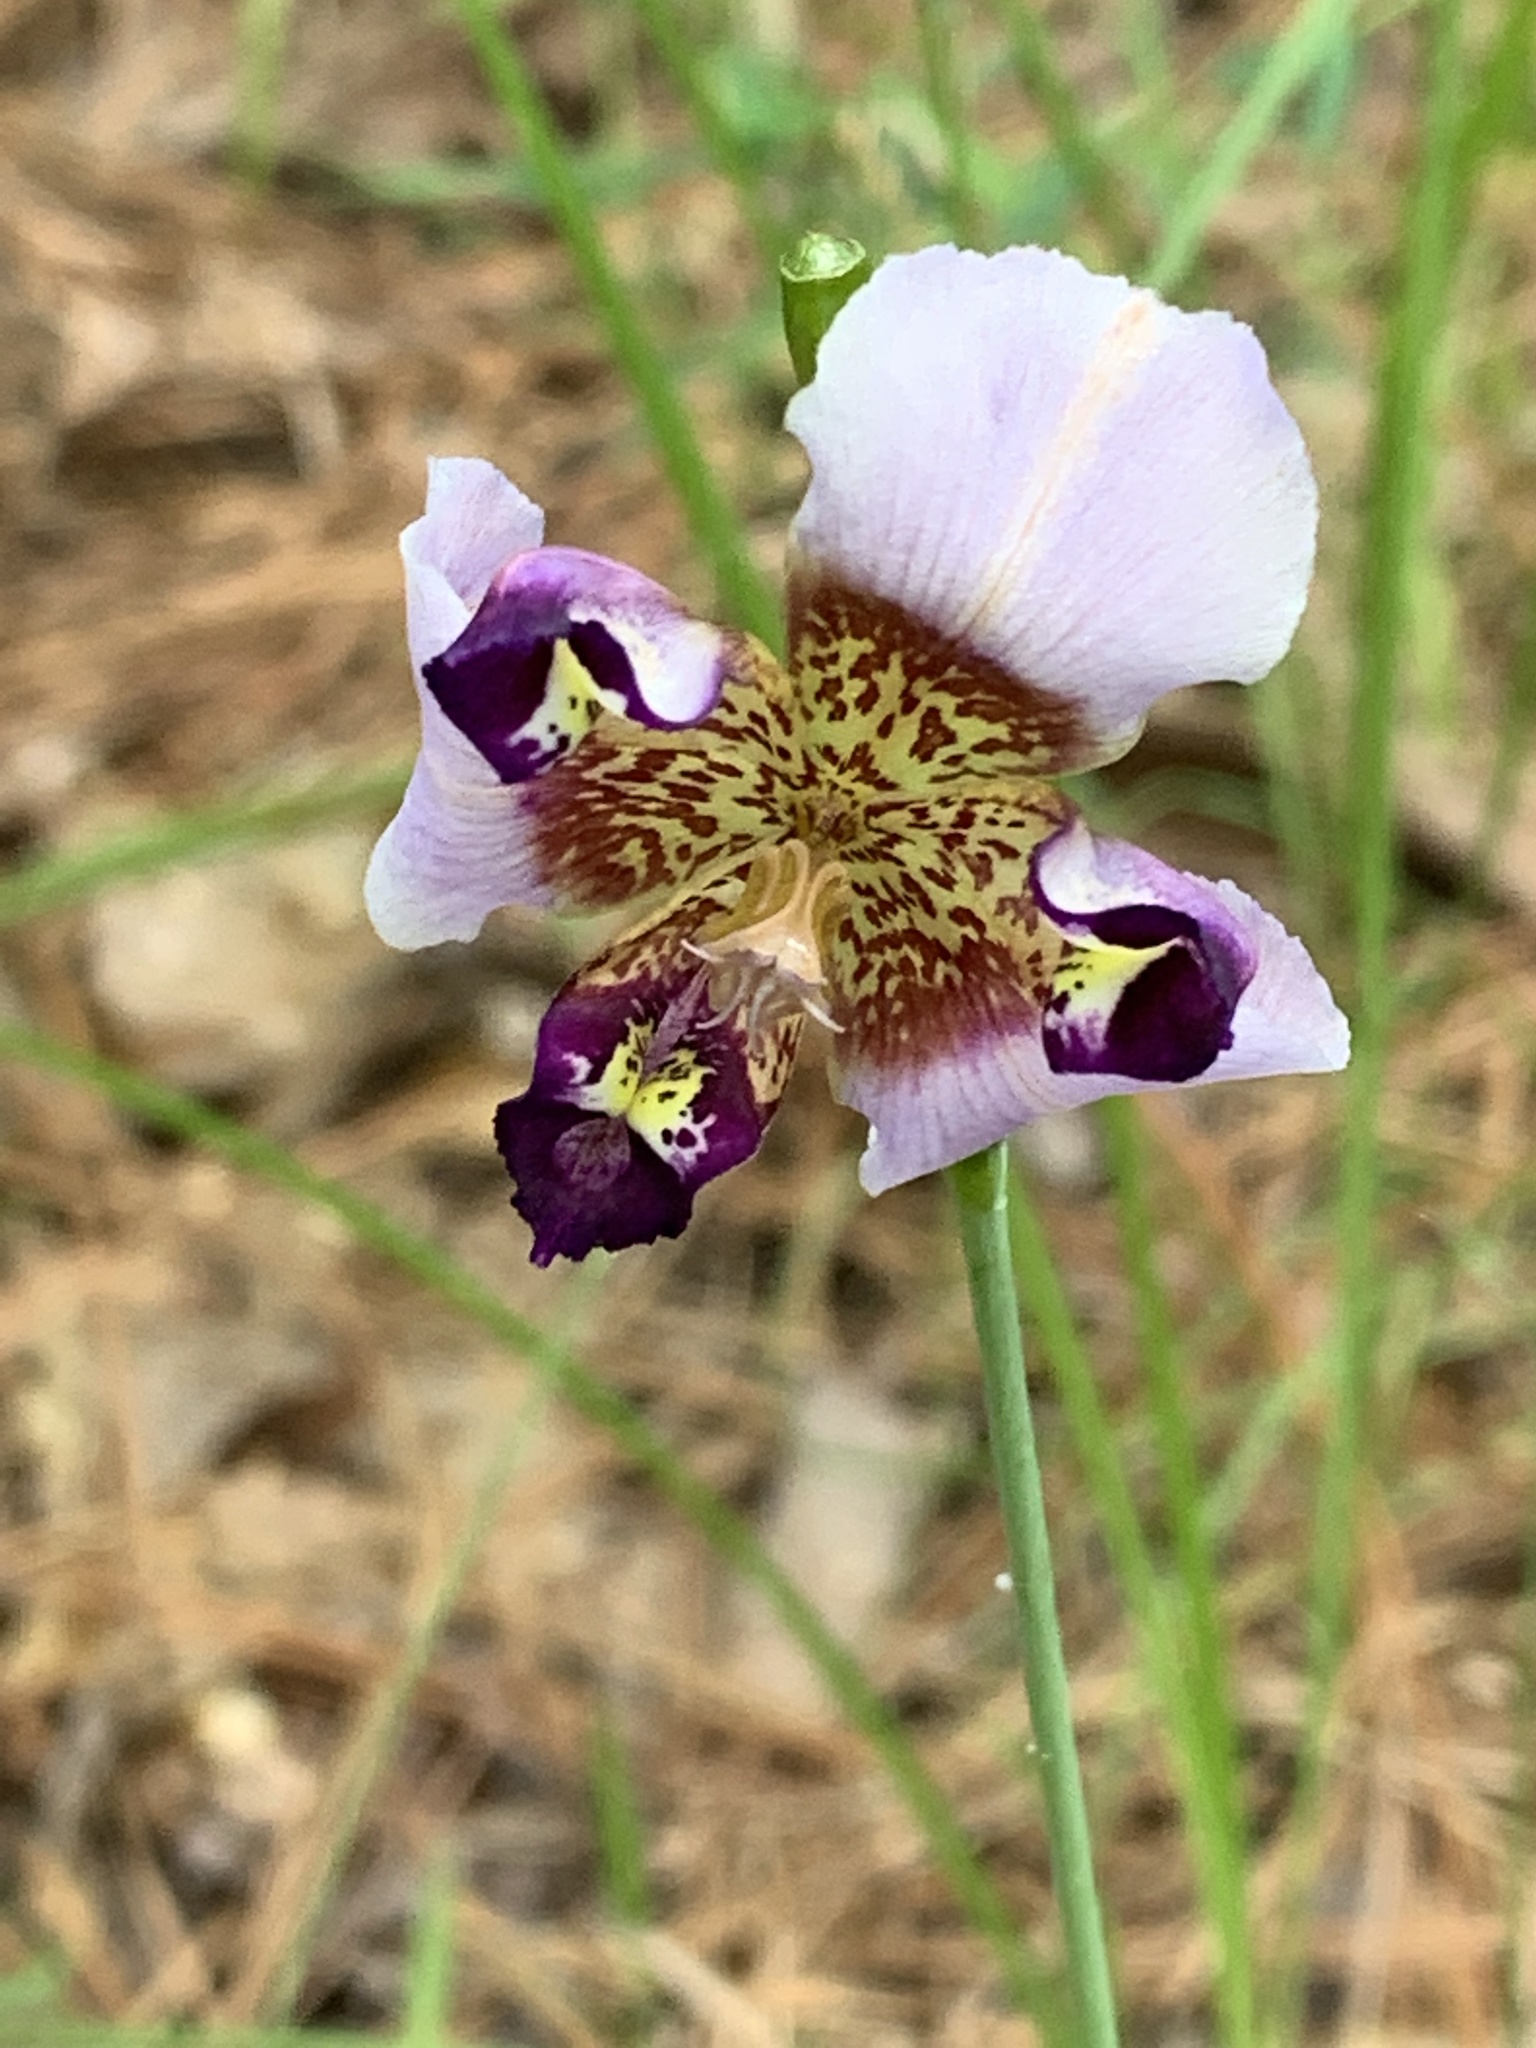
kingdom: Plantae
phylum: Tracheophyta
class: Liliopsida
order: Asparagales
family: Iridaceae
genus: Alophia
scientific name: Alophia drummondii
